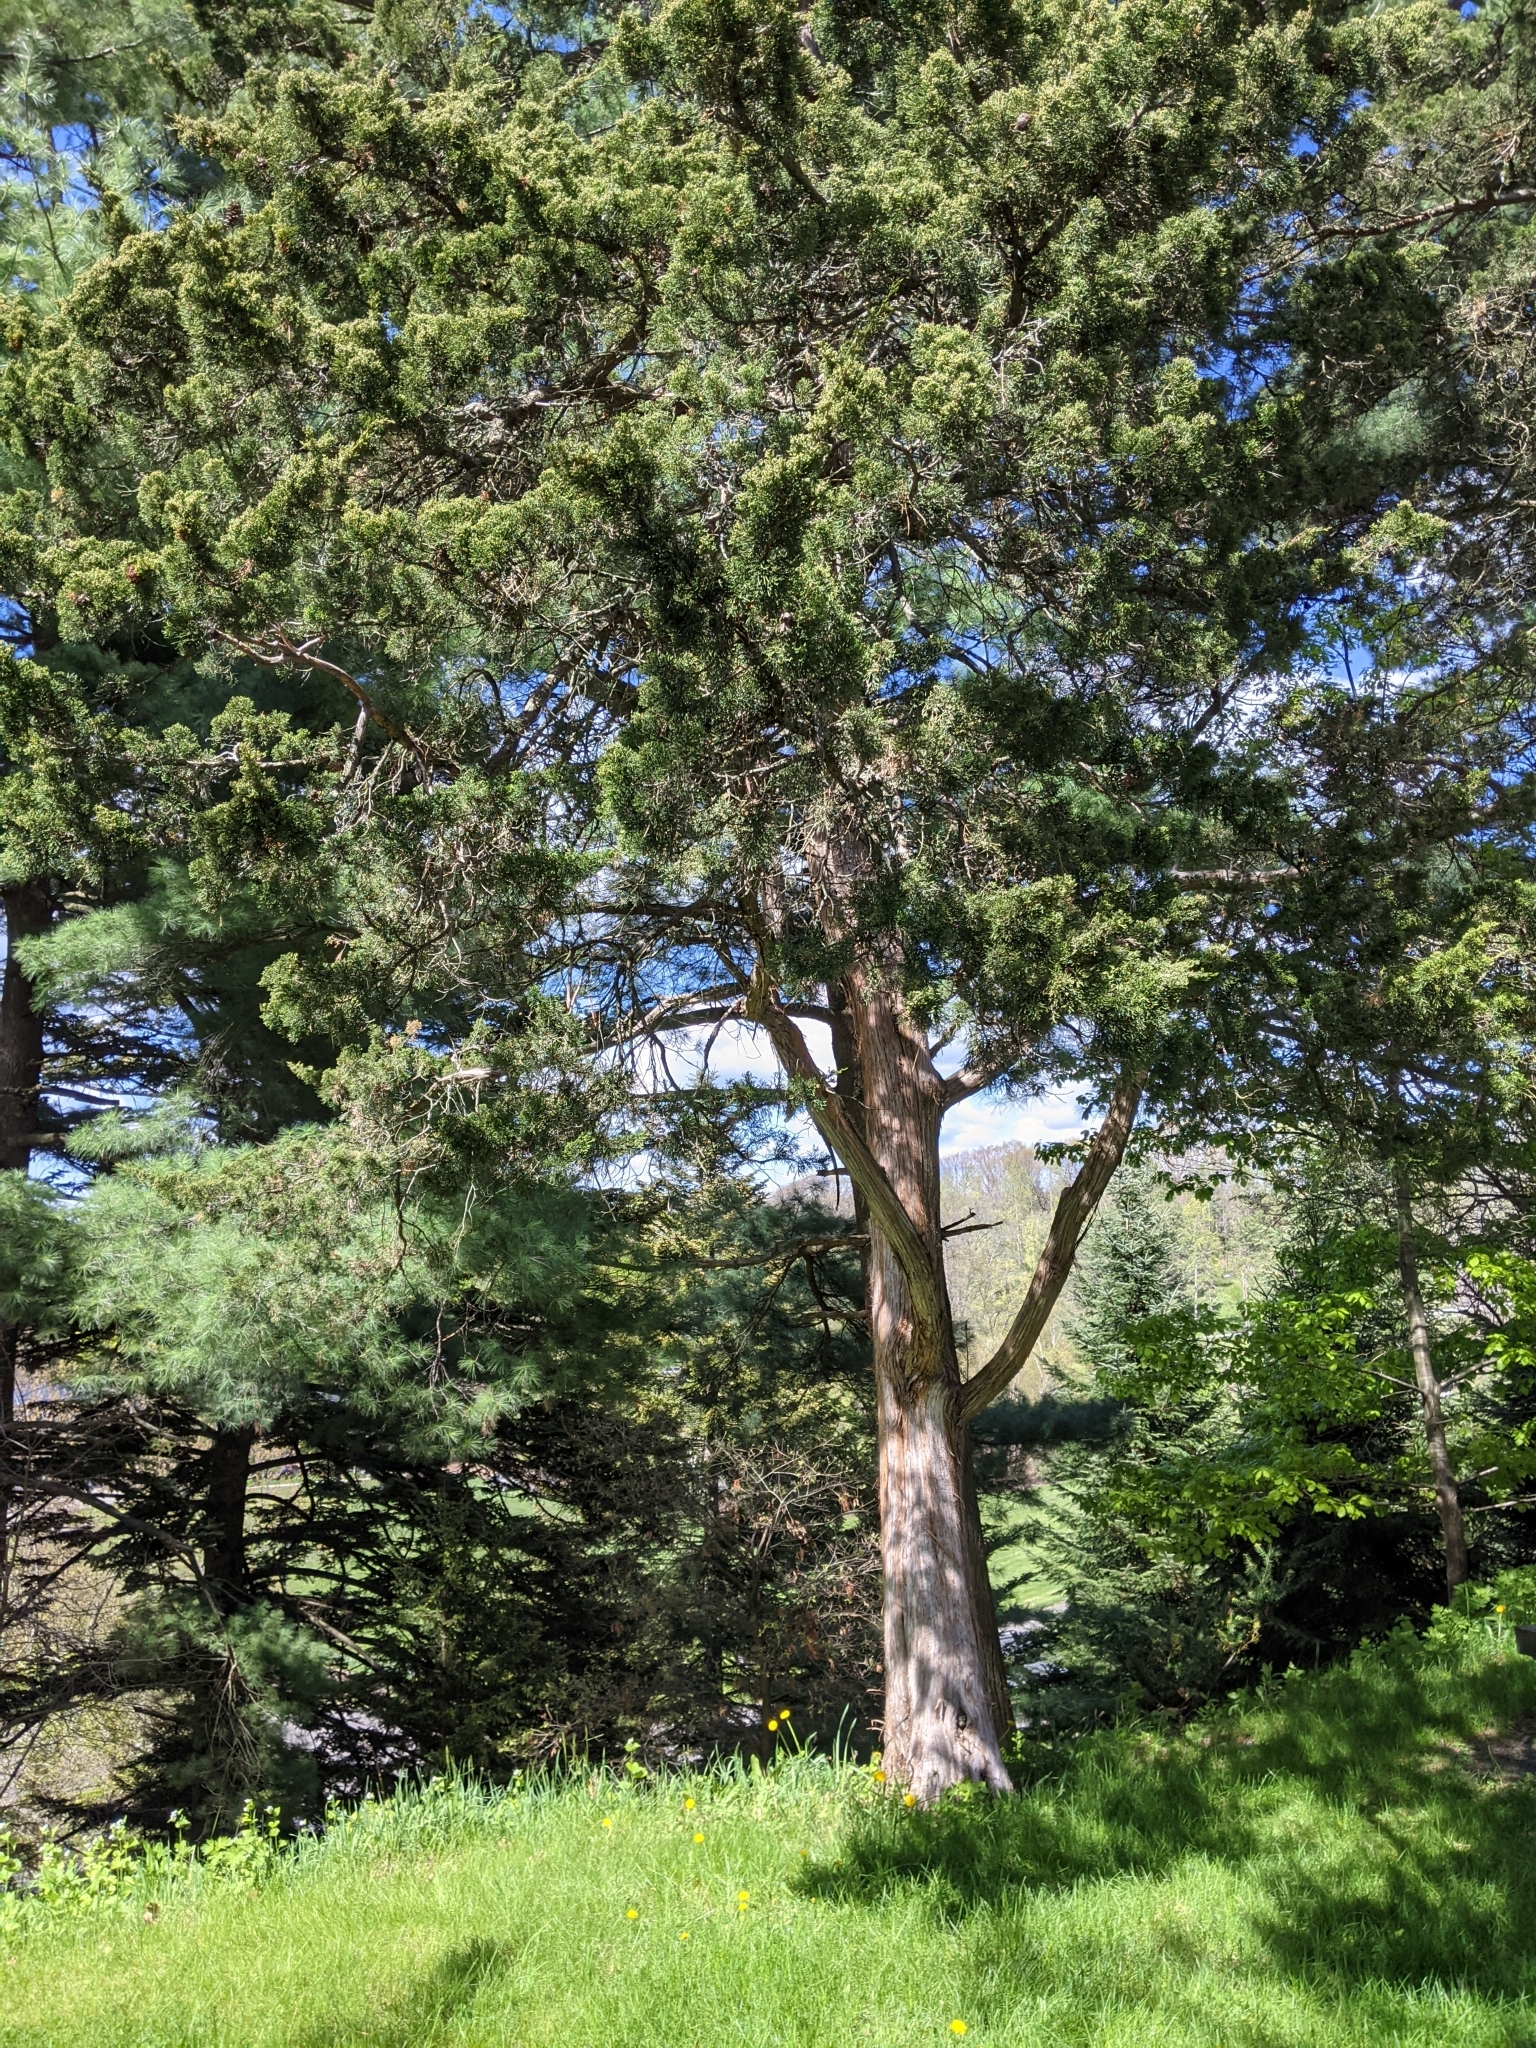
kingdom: Fungi
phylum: Basidiomycota
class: Pucciniomycetes
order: Pucciniales
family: Gymnosporangiaceae
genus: Gymnosporangium
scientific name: Gymnosporangium juniperi-virginianae
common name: Juniper-apple rust
